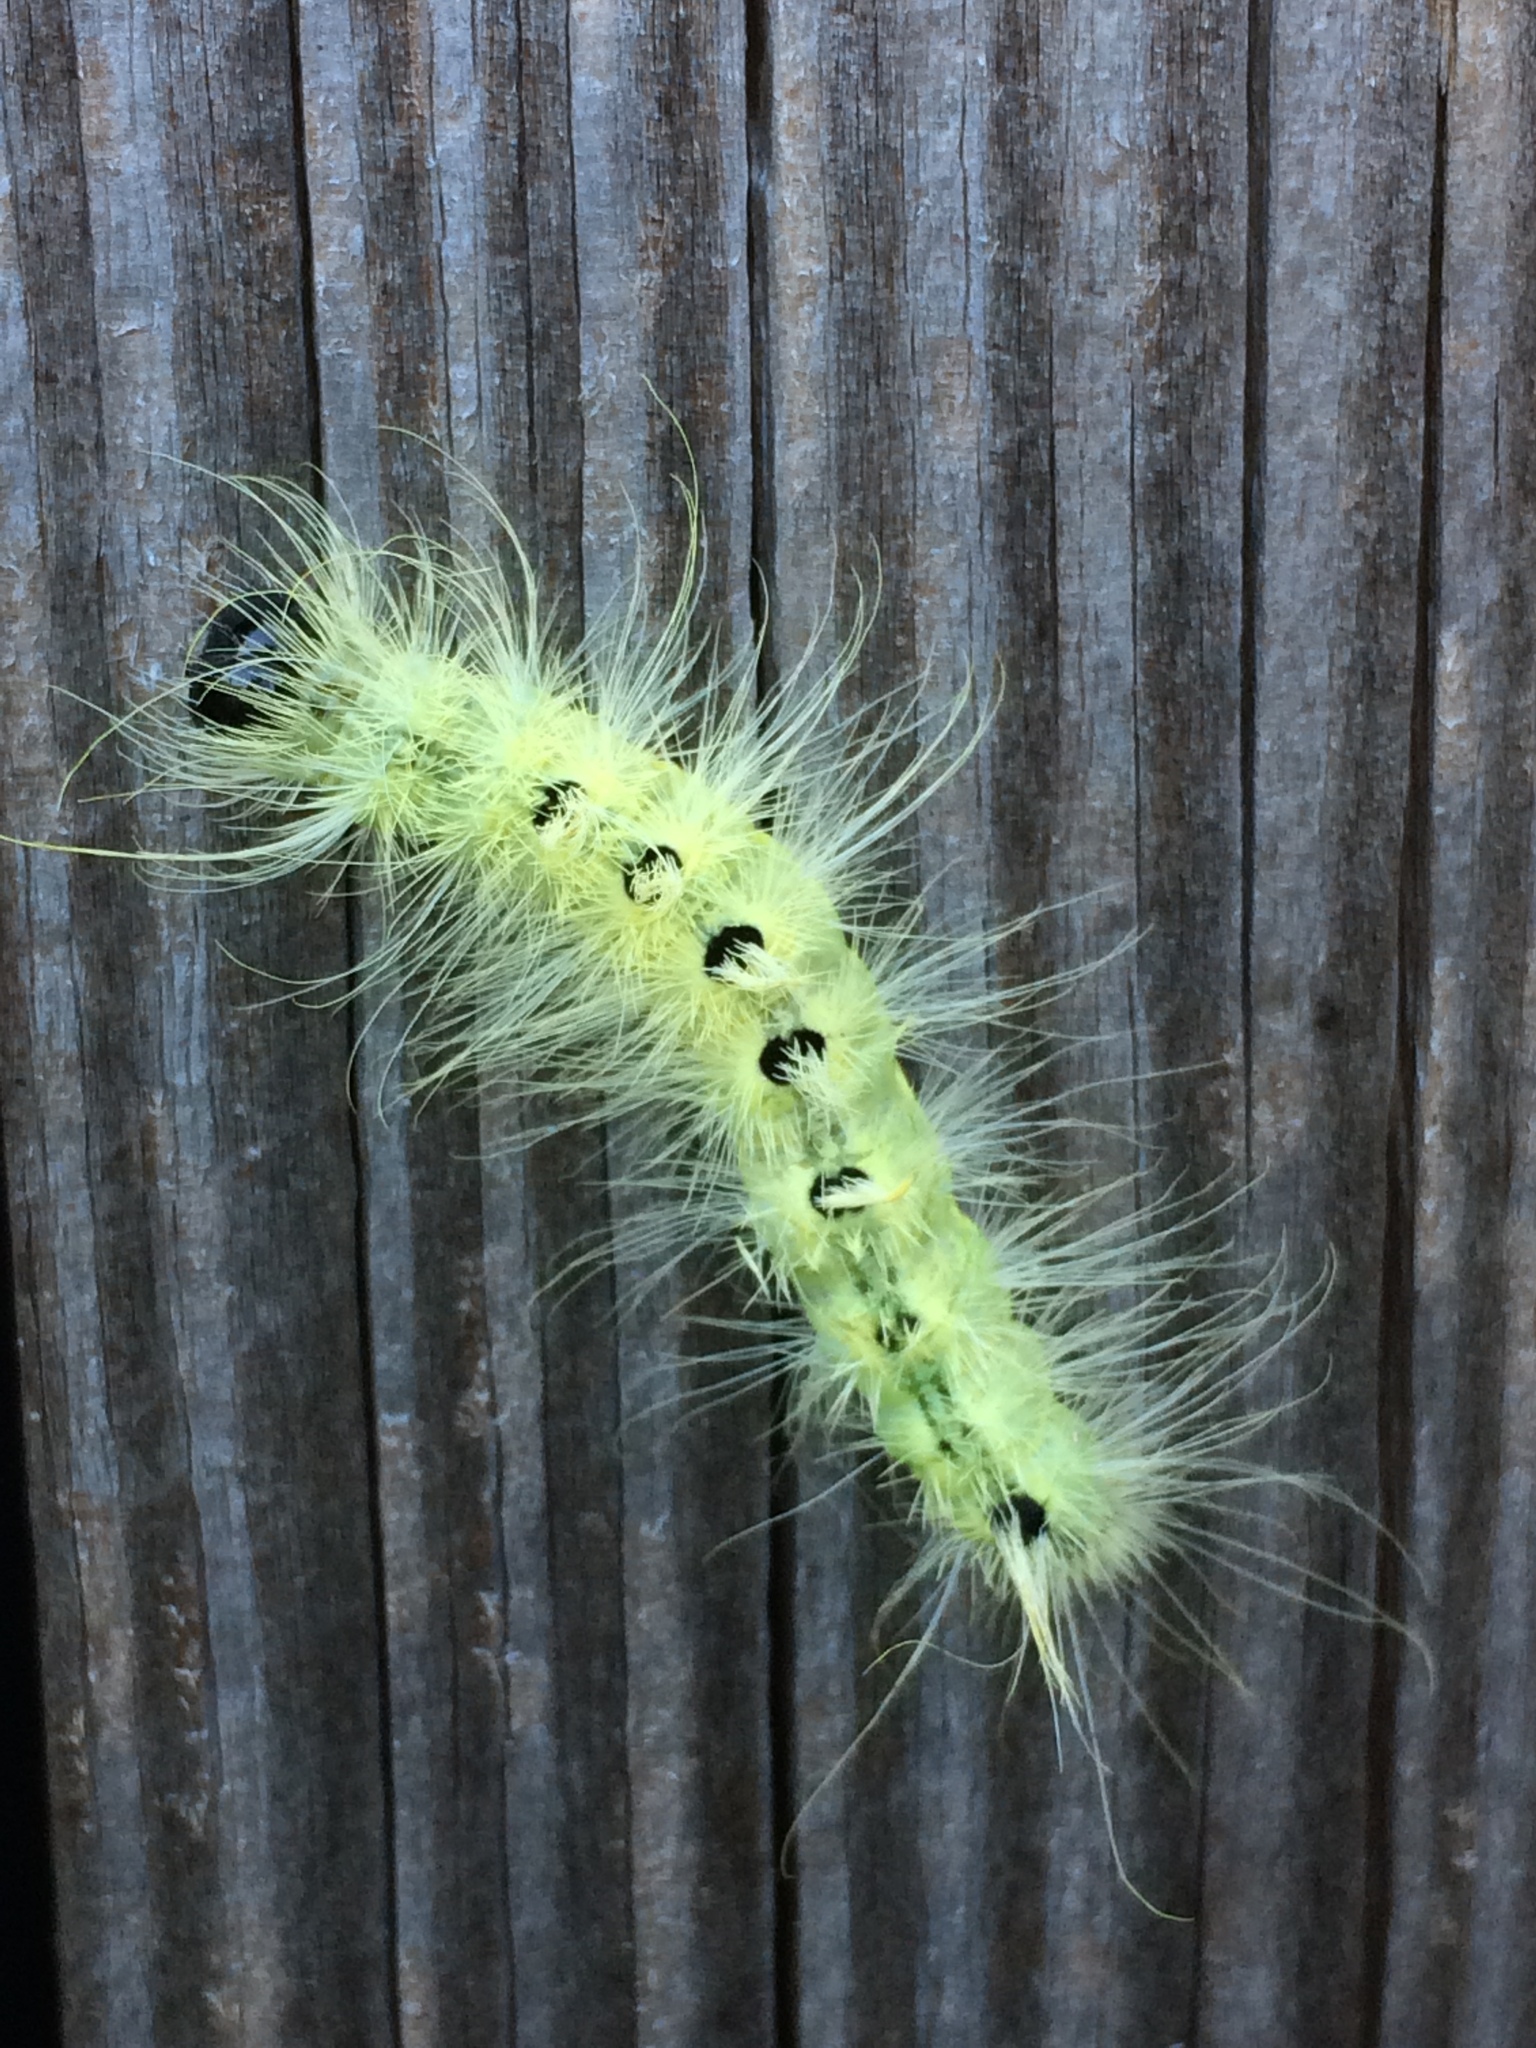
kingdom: Animalia
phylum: Arthropoda
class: Insecta
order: Lepidoptera
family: Noctuidae
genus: Acronicta
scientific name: Acronicta rubricoma
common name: Hackberry dagger
